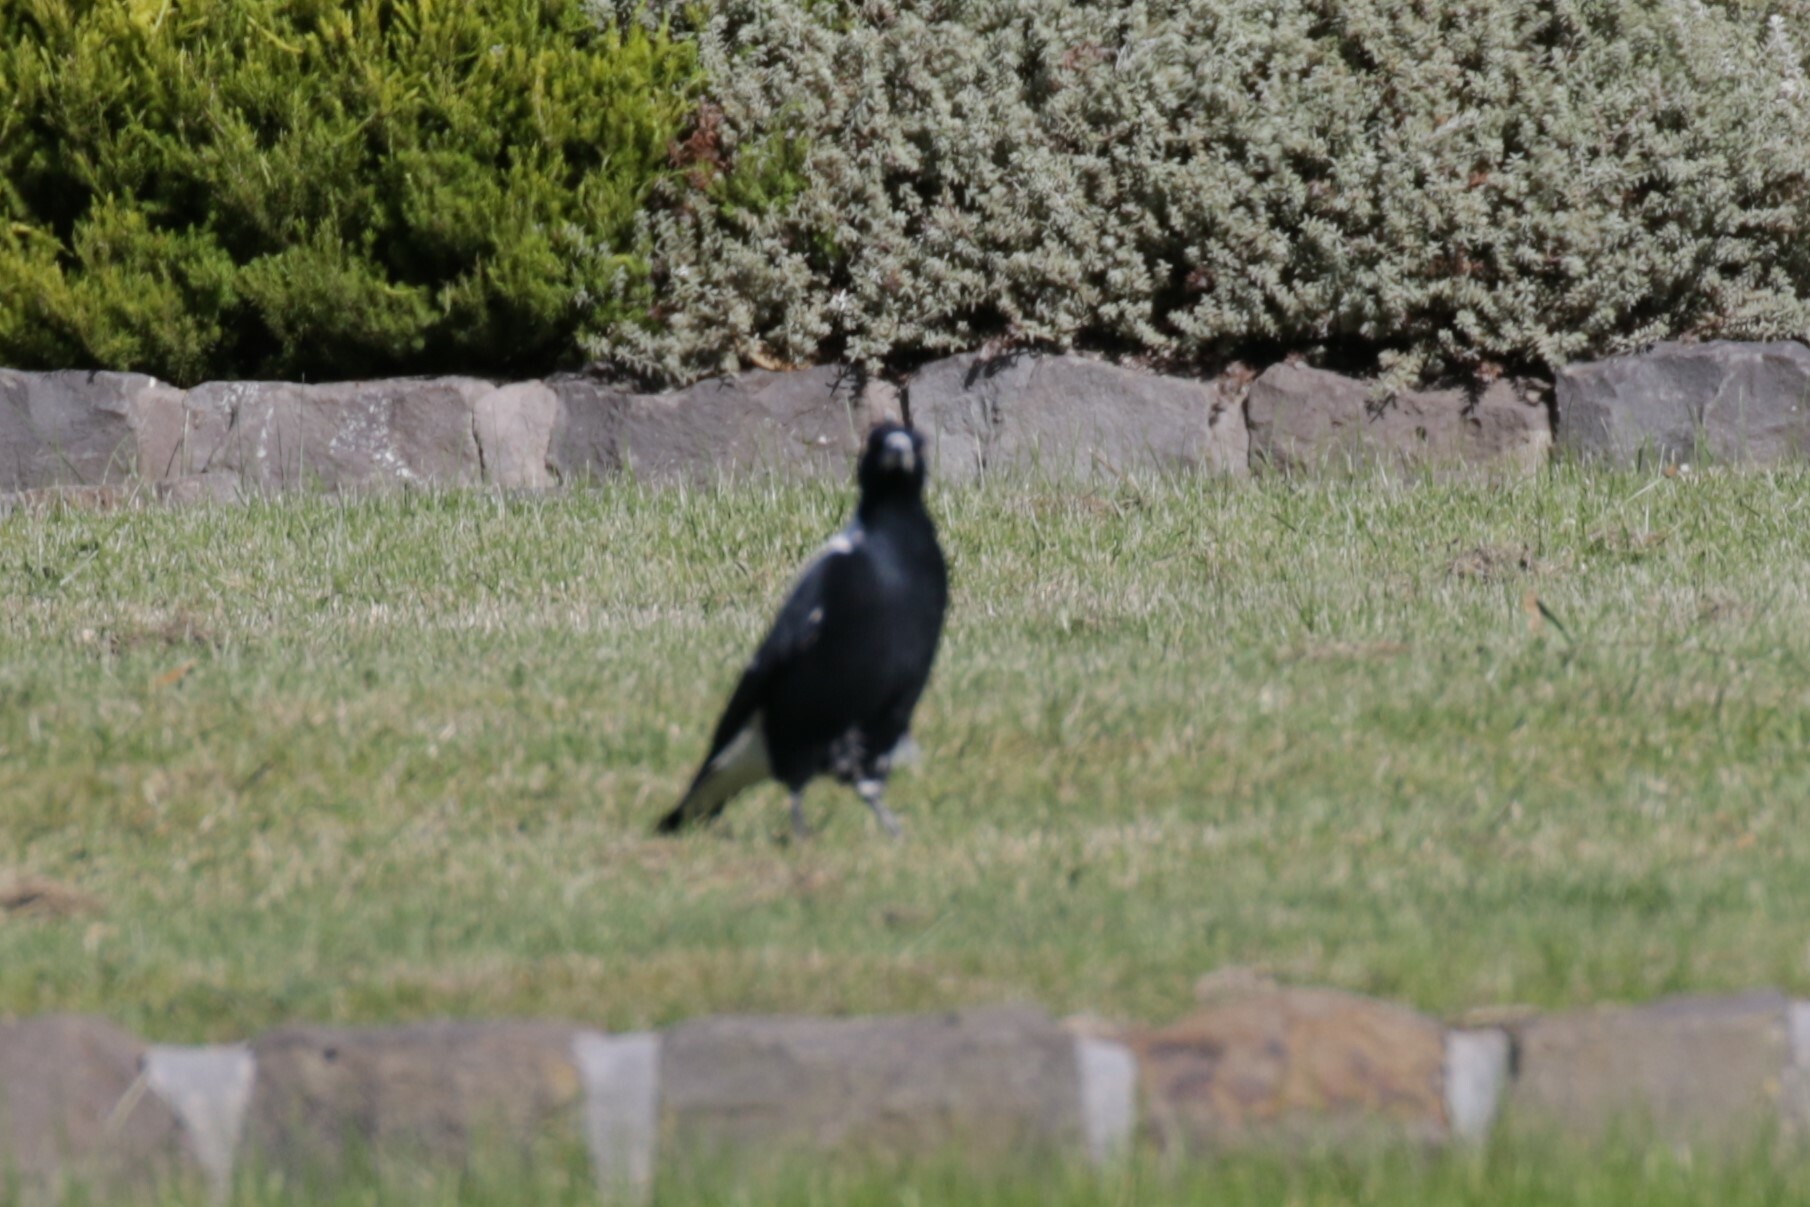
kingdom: Animalia
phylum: Chordata
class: Aves
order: Passeriformes
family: Cracticidae
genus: Gymnorhina
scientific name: Gymnorhina tibicen
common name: Australian magpie
